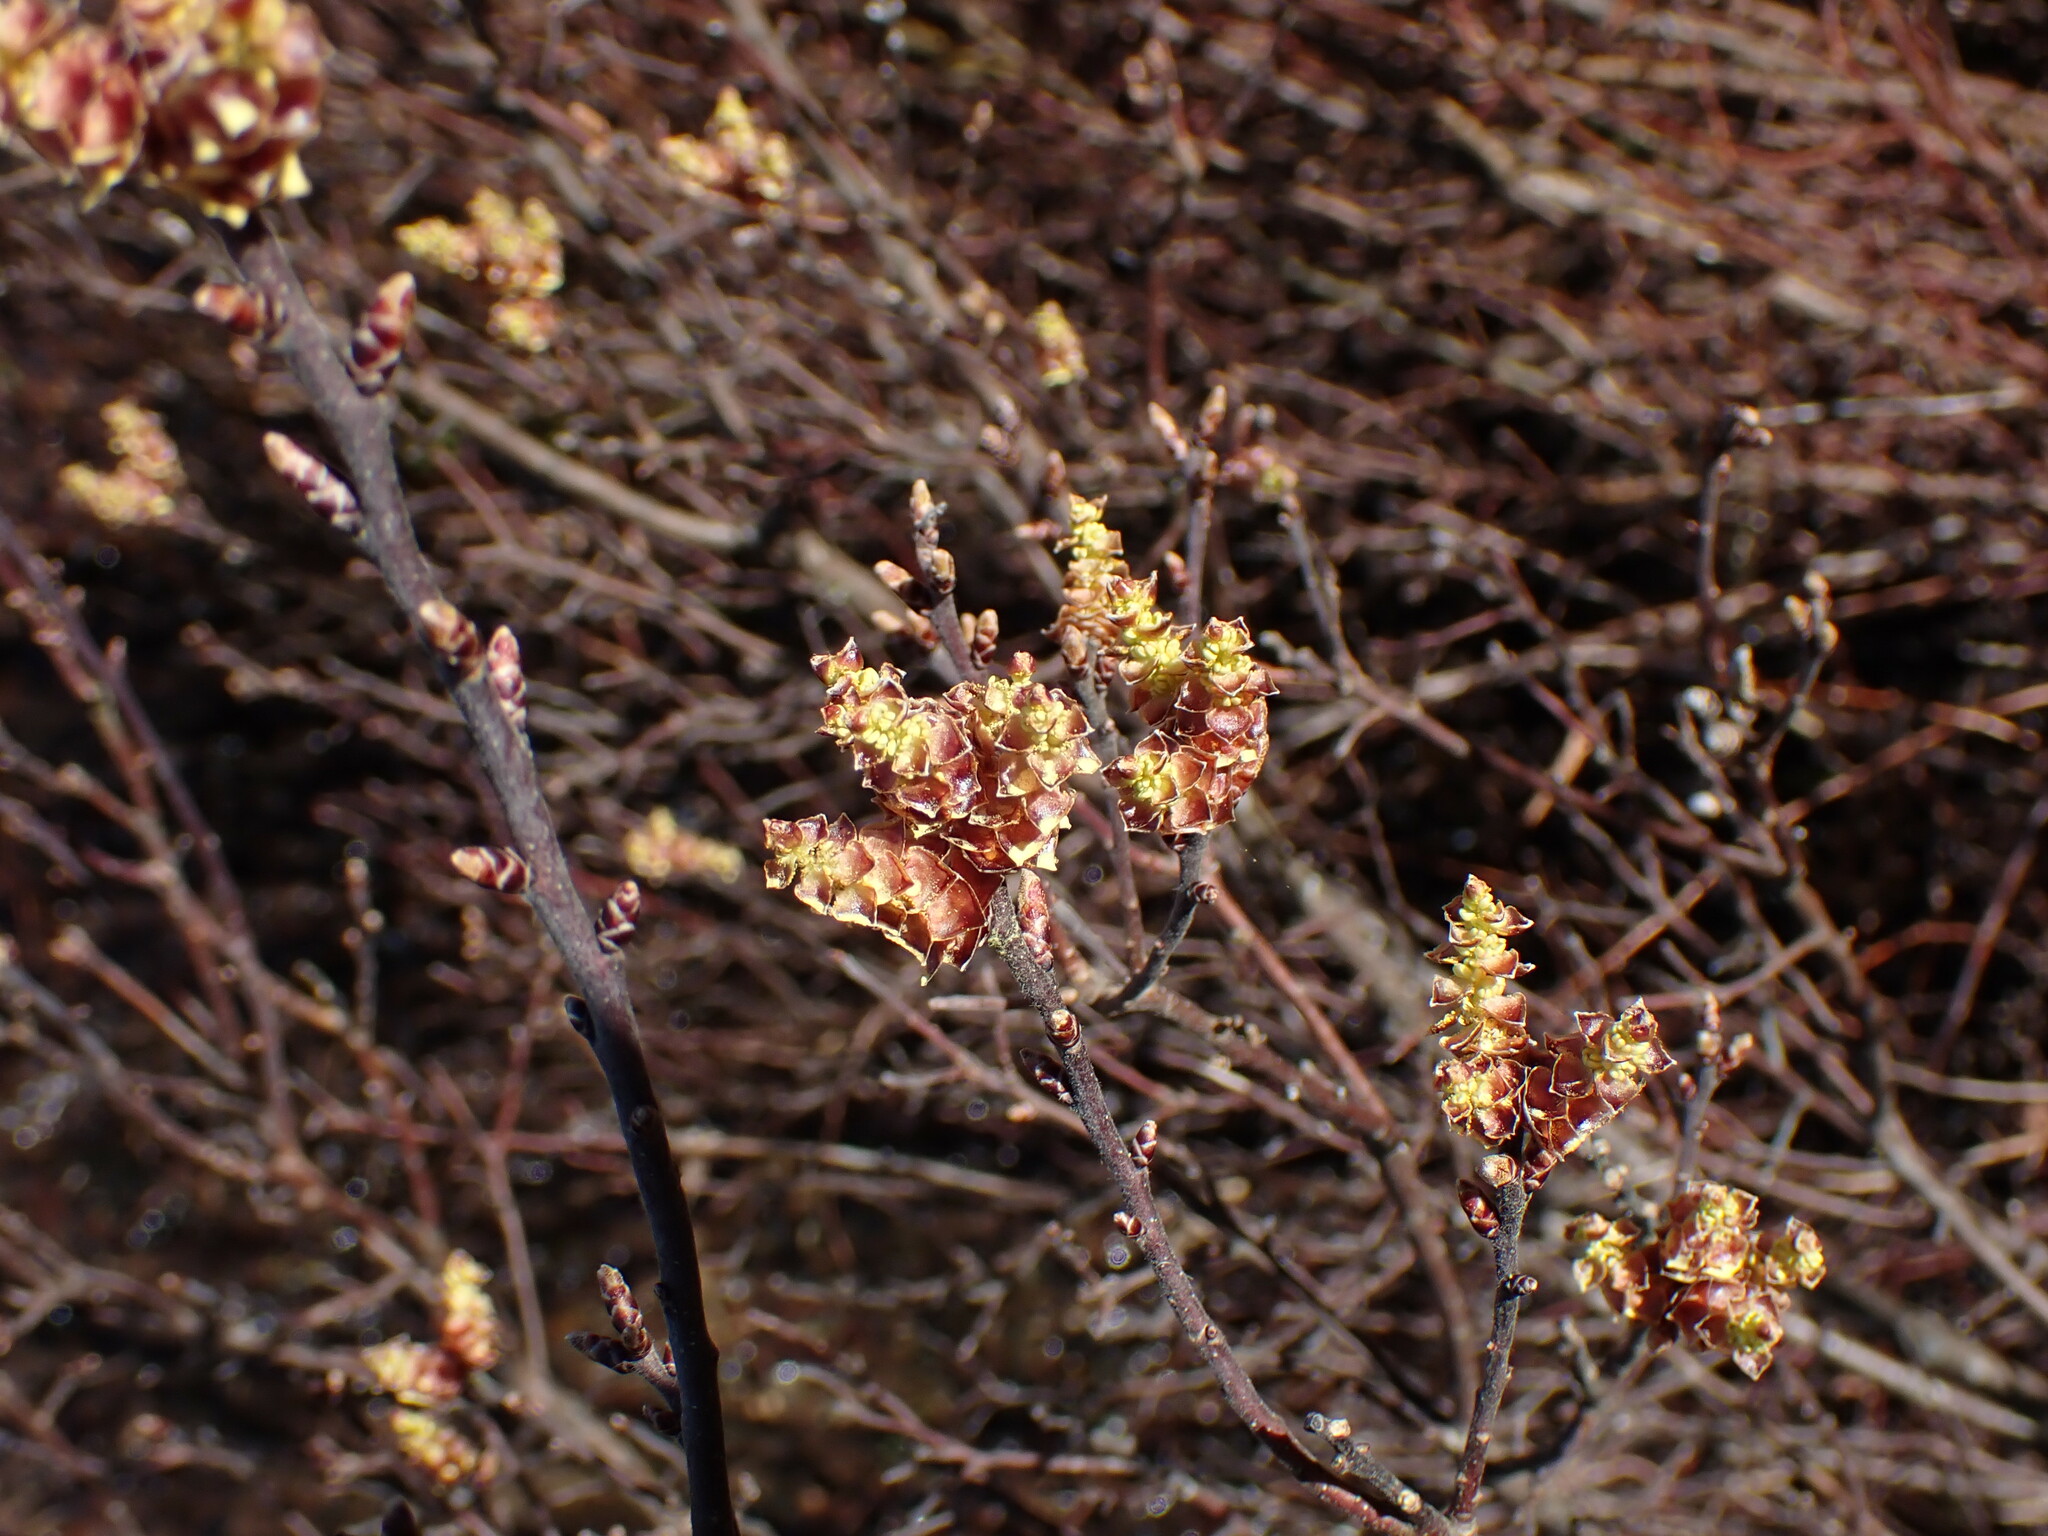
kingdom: Plantae
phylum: Tracheophyta
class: Magnoliopsida
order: Fagales
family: Myricaceae
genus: Myrica
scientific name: Myrica gale
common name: Sweet gale
